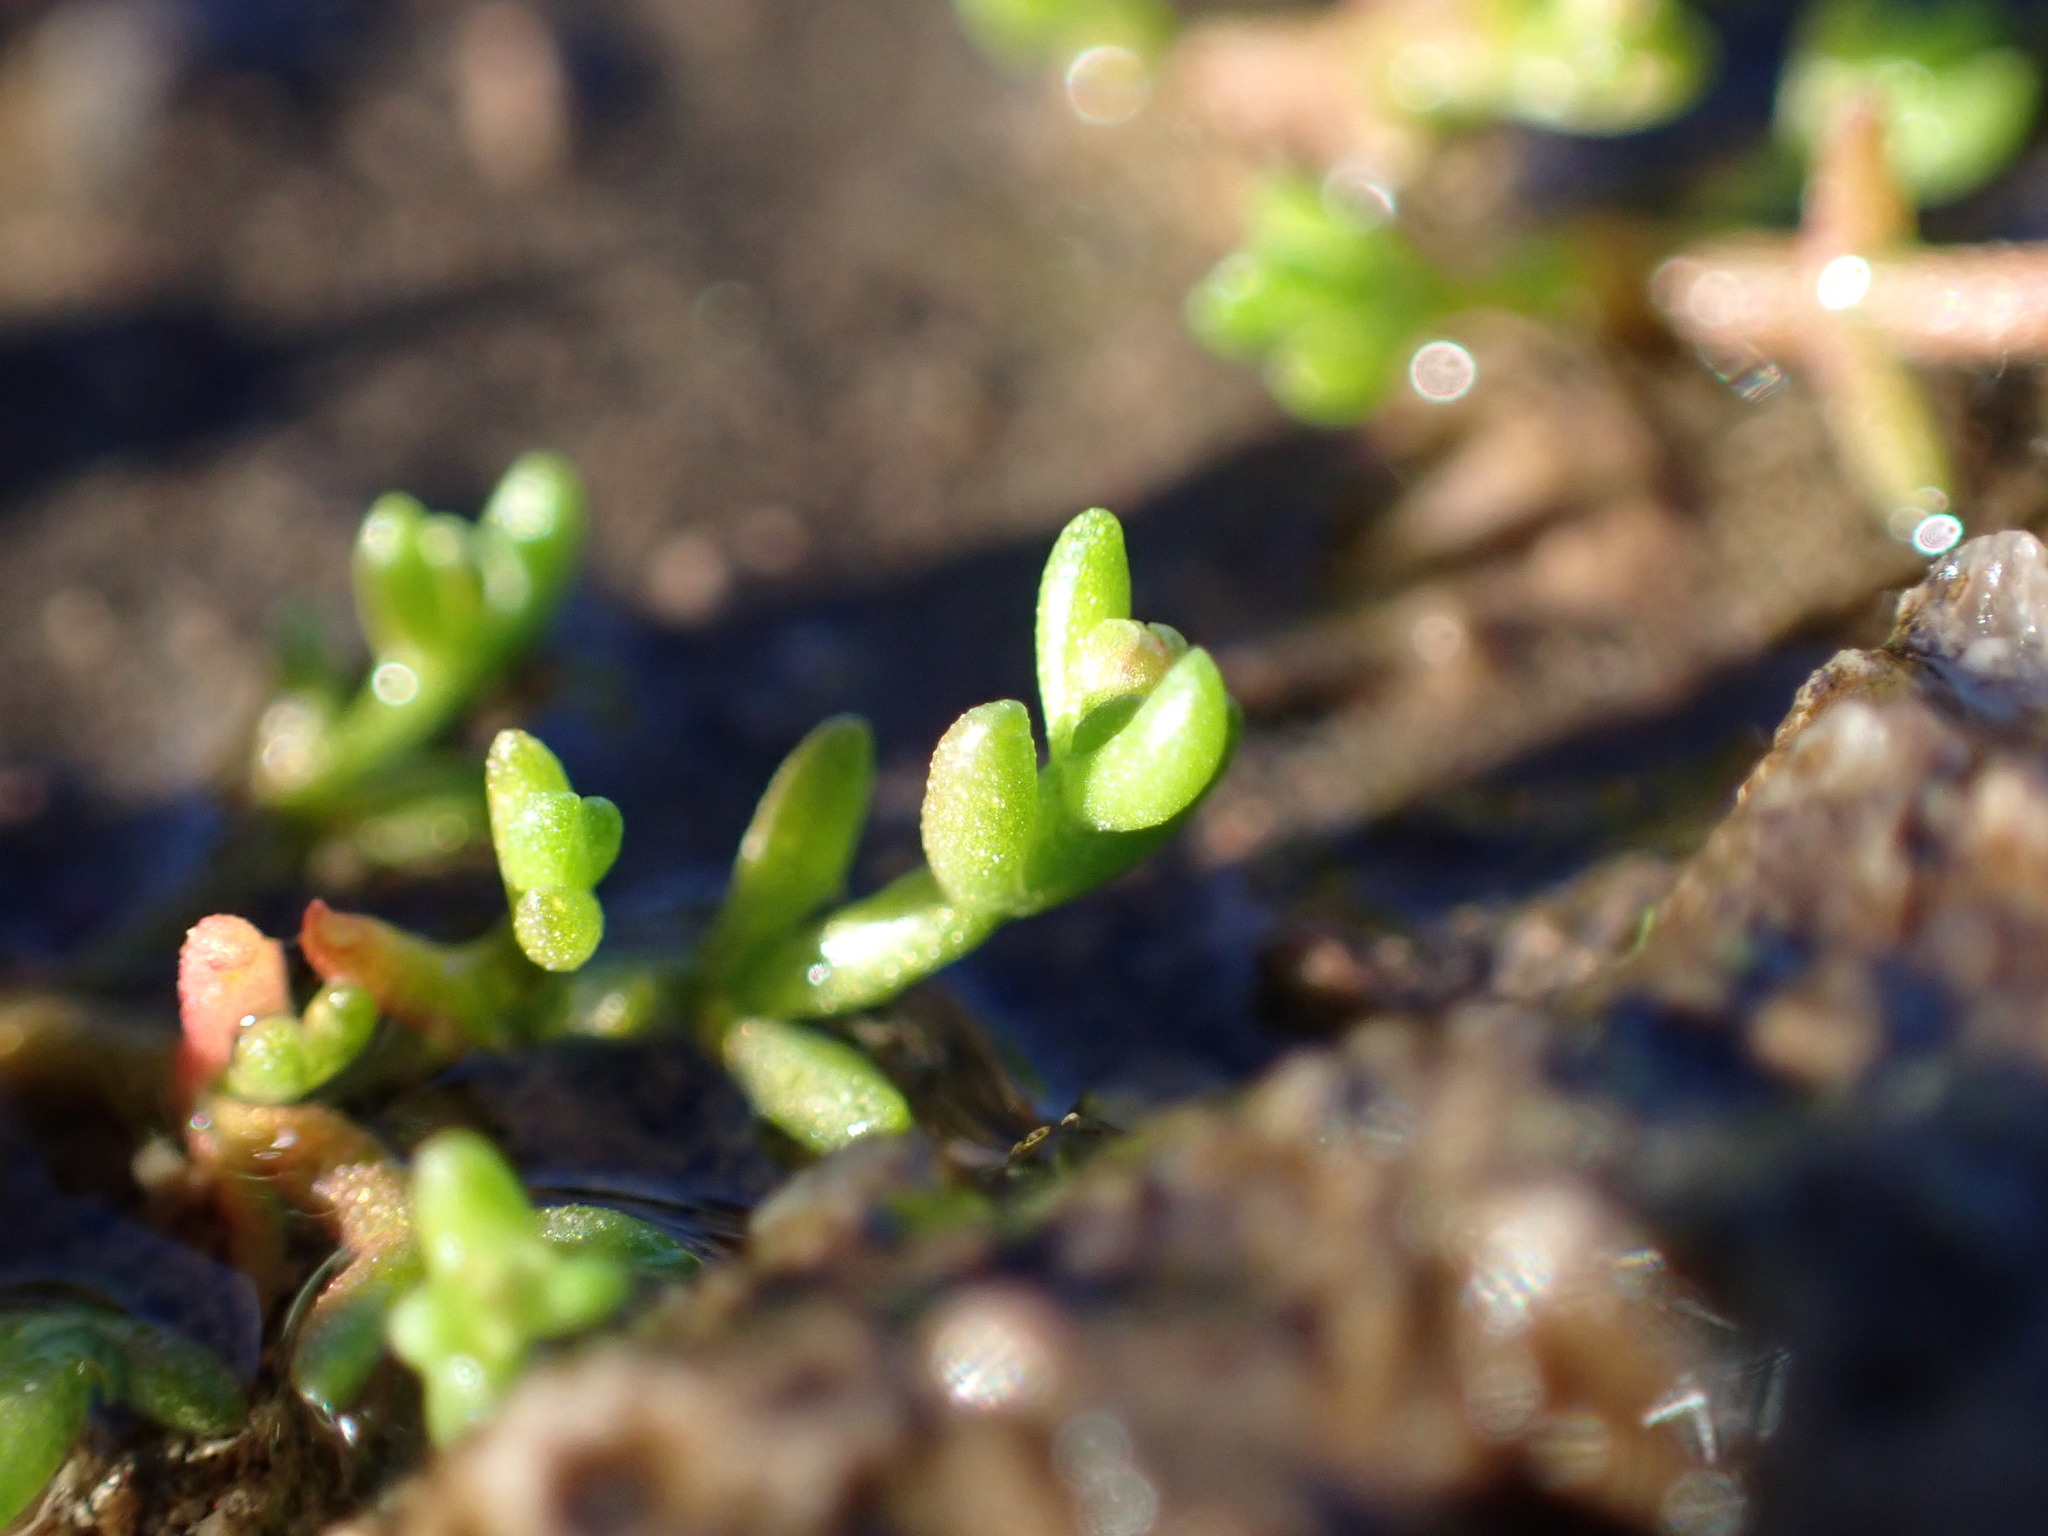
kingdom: Plantae
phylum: Tracheophyta
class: Magnoliopsida
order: Saxifragales
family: Crassulaceae
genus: Crassula
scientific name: Crassula vaillantii
